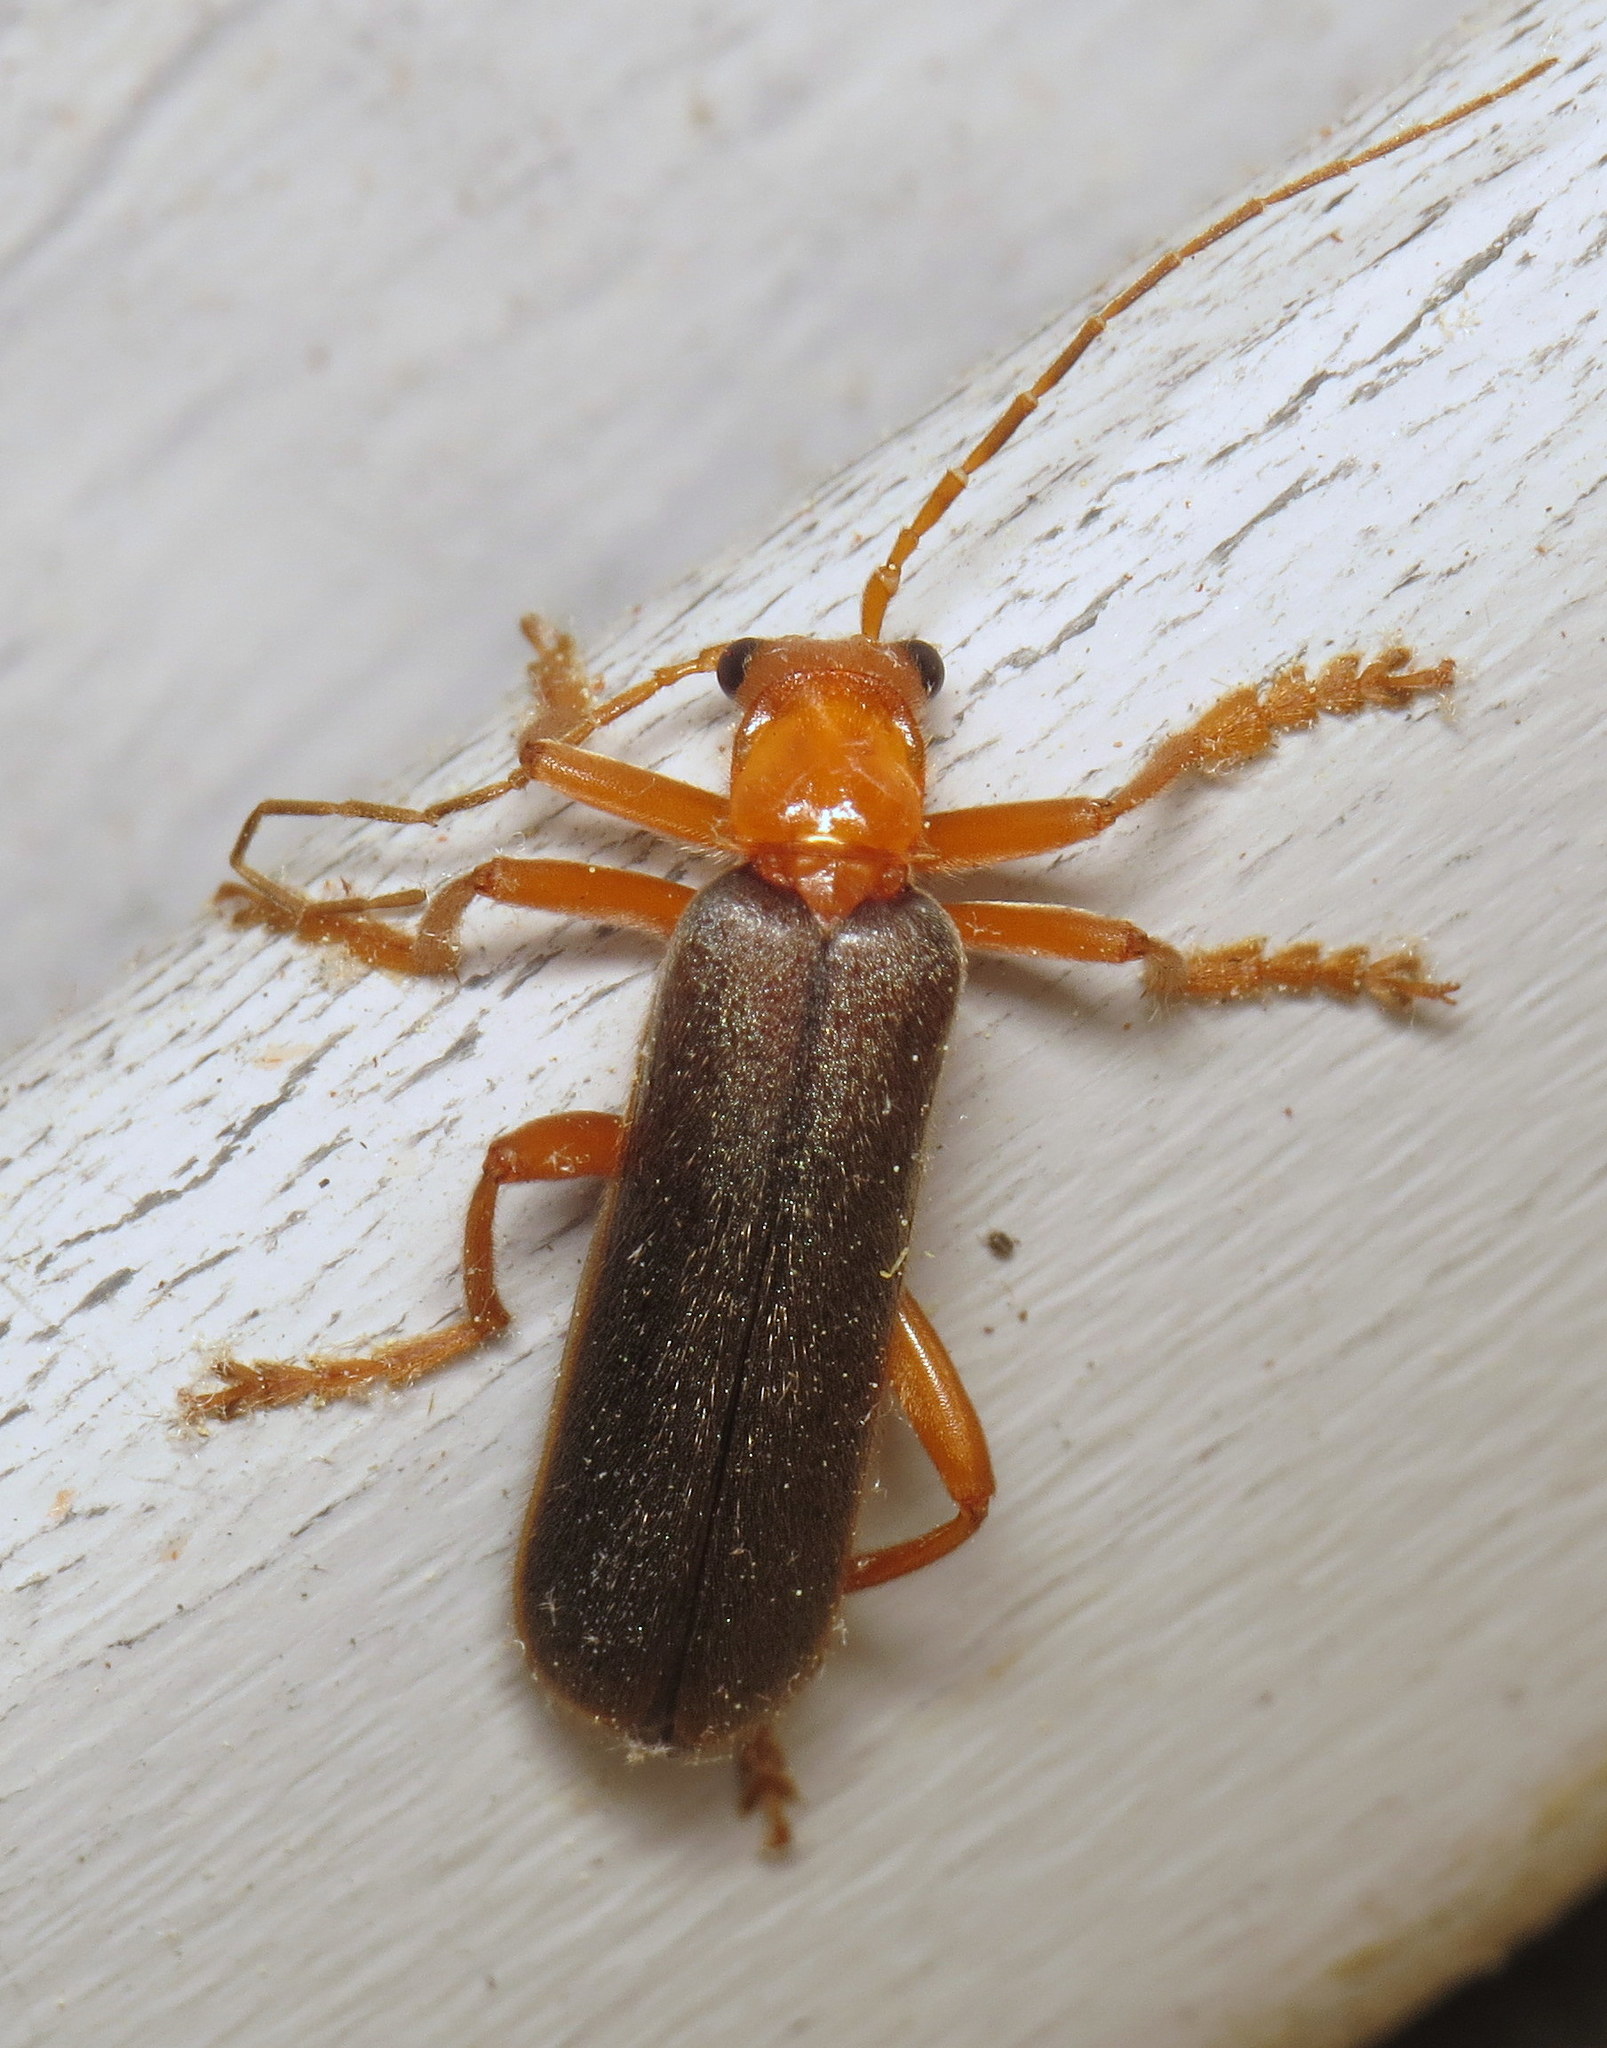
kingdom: Animalia
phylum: Arthropoda
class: Insecta
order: Coleoptera
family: Cantharidae
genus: Pacificanthia
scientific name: Pacificanthia rotundicollis
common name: Brown leatherwing beetle
